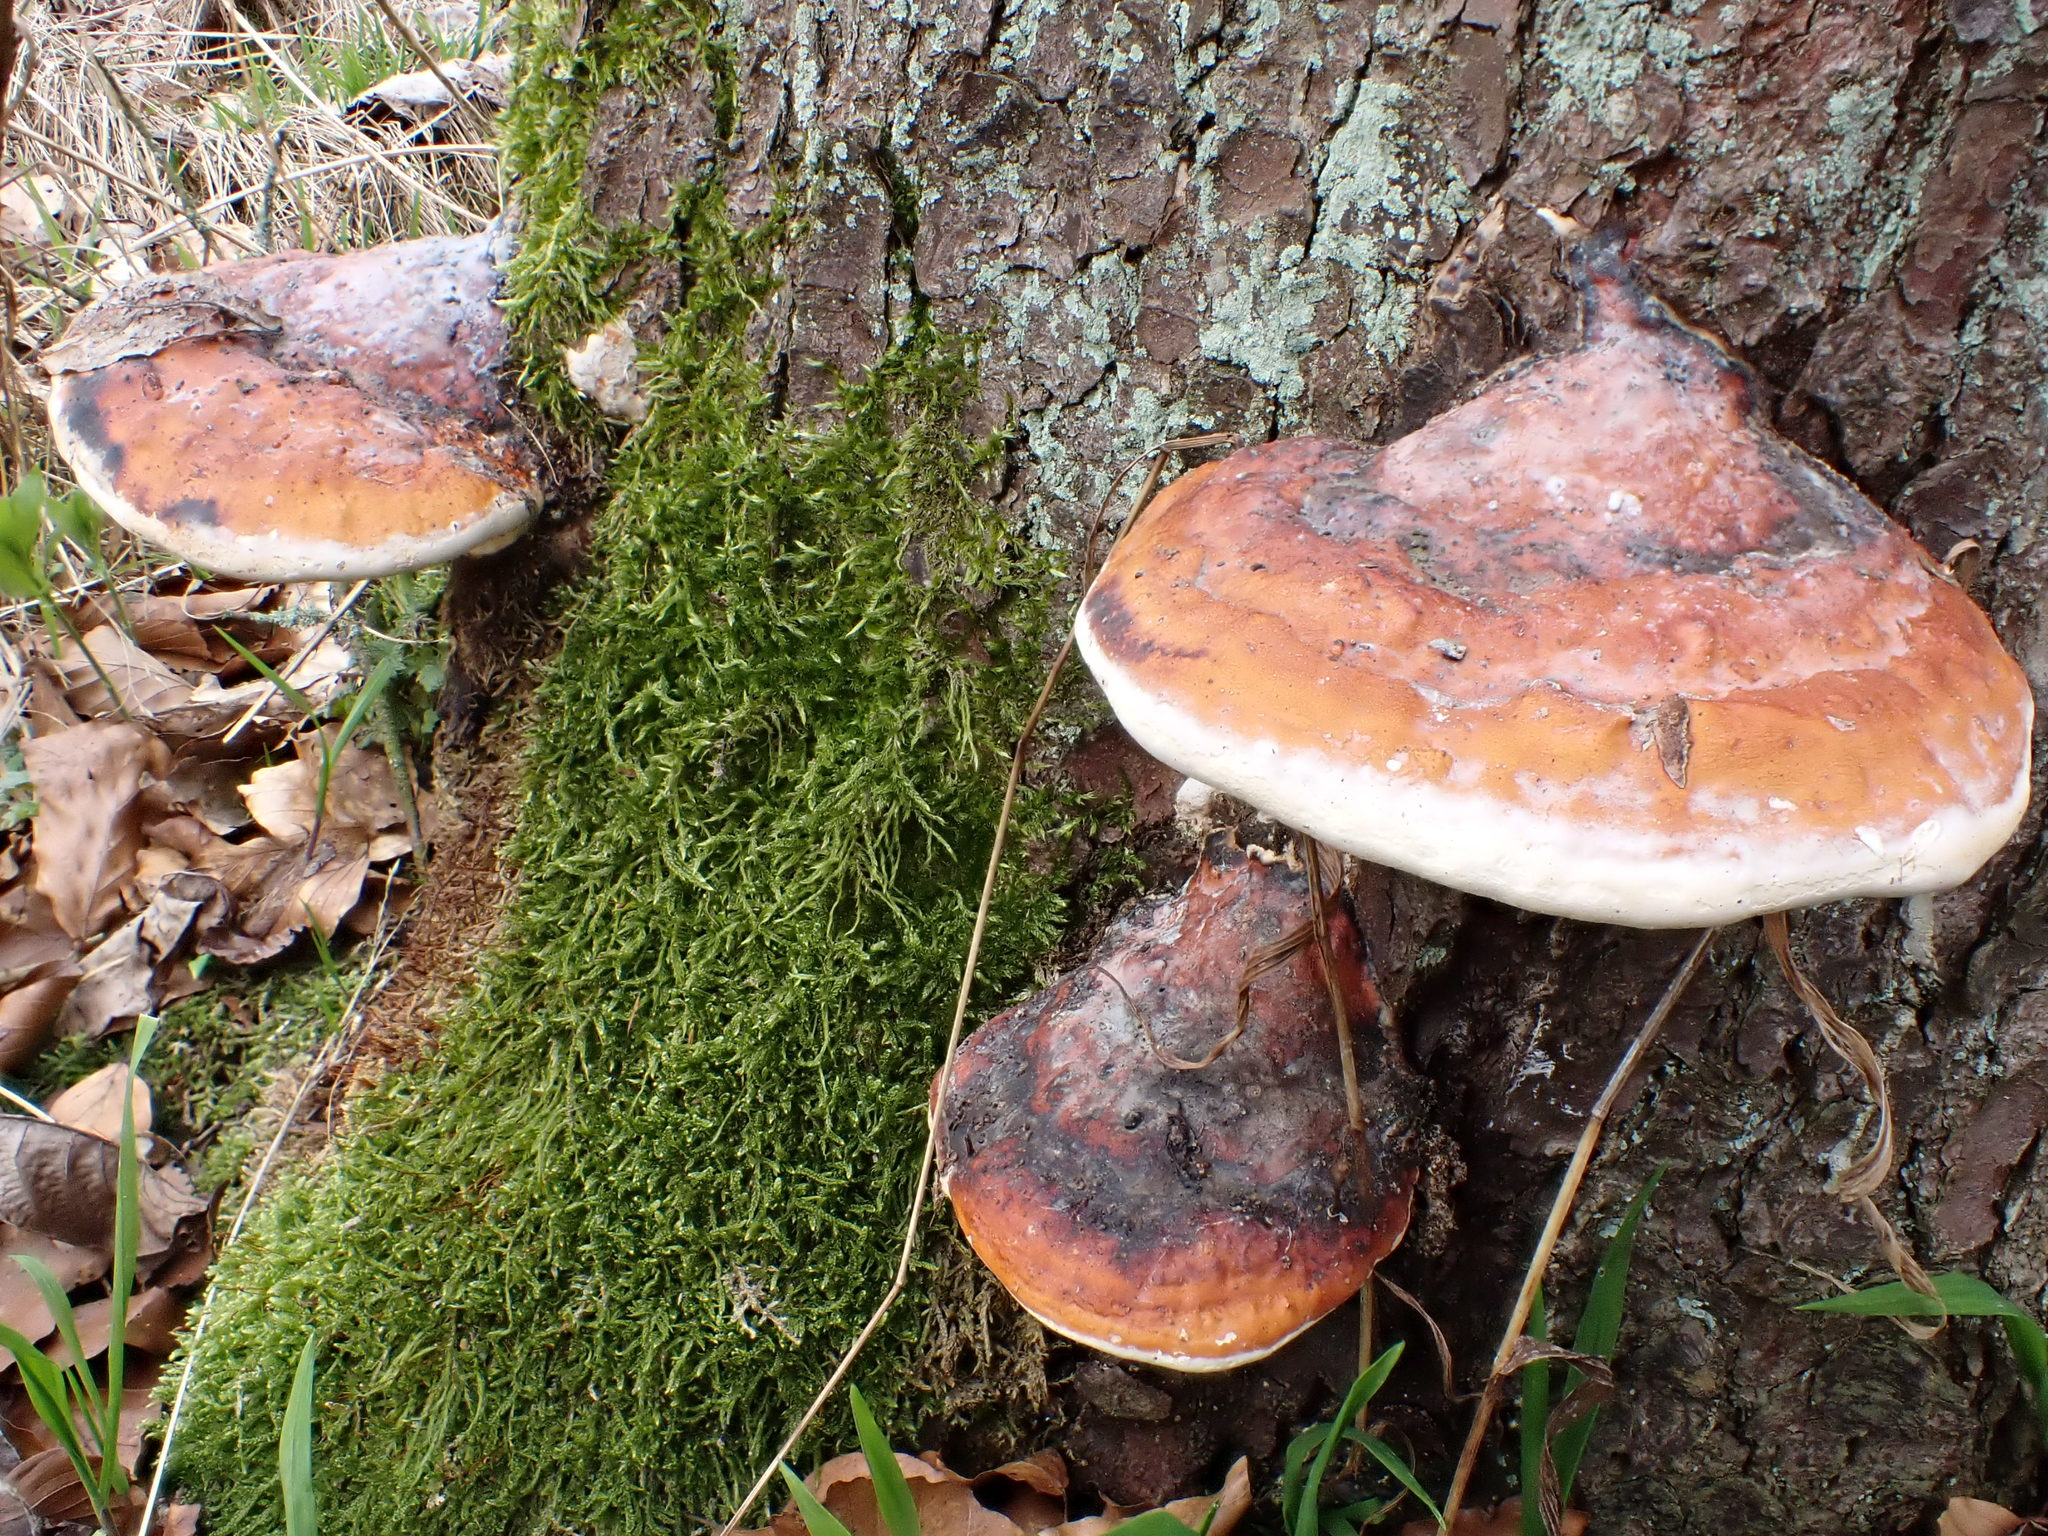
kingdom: Fungi
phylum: Basidiomycota
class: Agaricomycetes
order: Polyporales
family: Fomitopsidaceae
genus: Fomitopsis
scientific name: Fomitopsis pinicola
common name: Red-belted bracket
